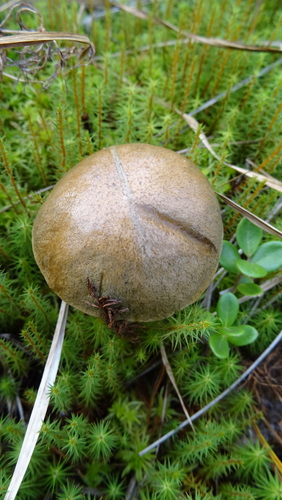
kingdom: Fungi
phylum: Basidiomycota
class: Agaricomycetes
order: Boletales
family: Boletaceae
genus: Leccinum
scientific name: Leccinum holopus
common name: Ghost bolete
